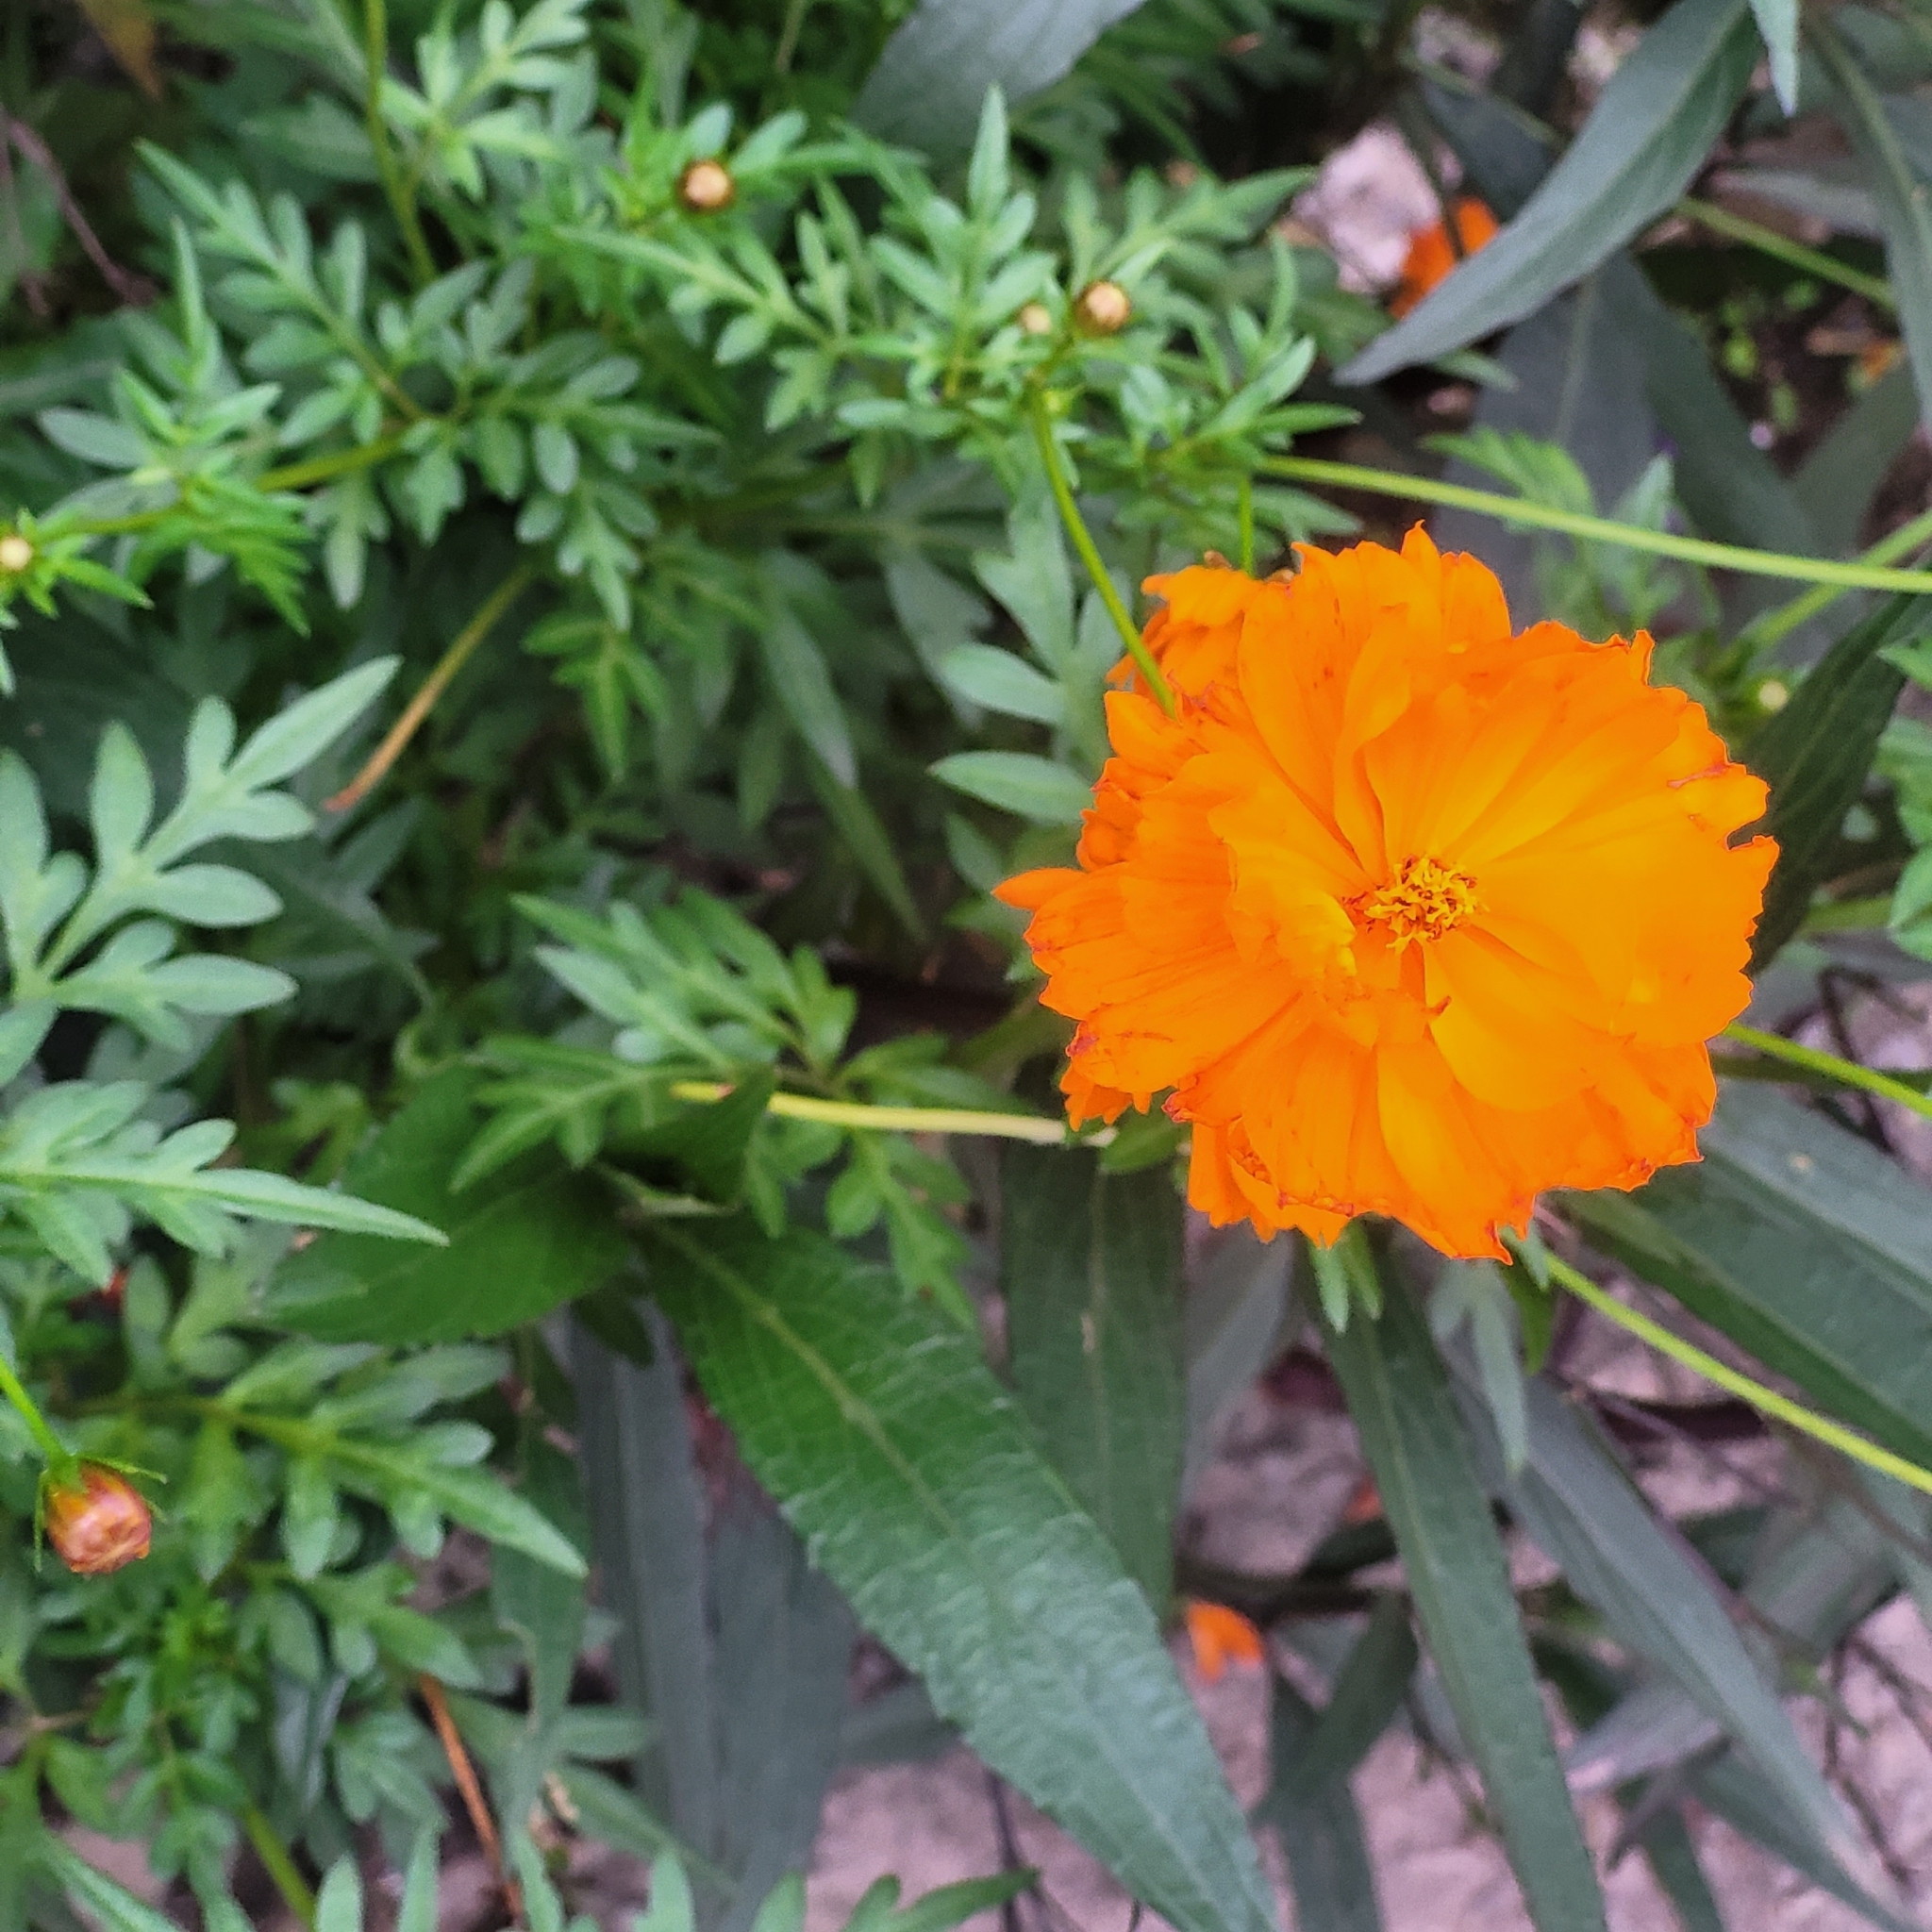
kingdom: Plantae
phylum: Tracheophyta
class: Magnoliopsida
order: Asterales
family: Asteraceae
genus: Cosmos
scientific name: Cosmos sulphureus
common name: Sulphur cosmos
